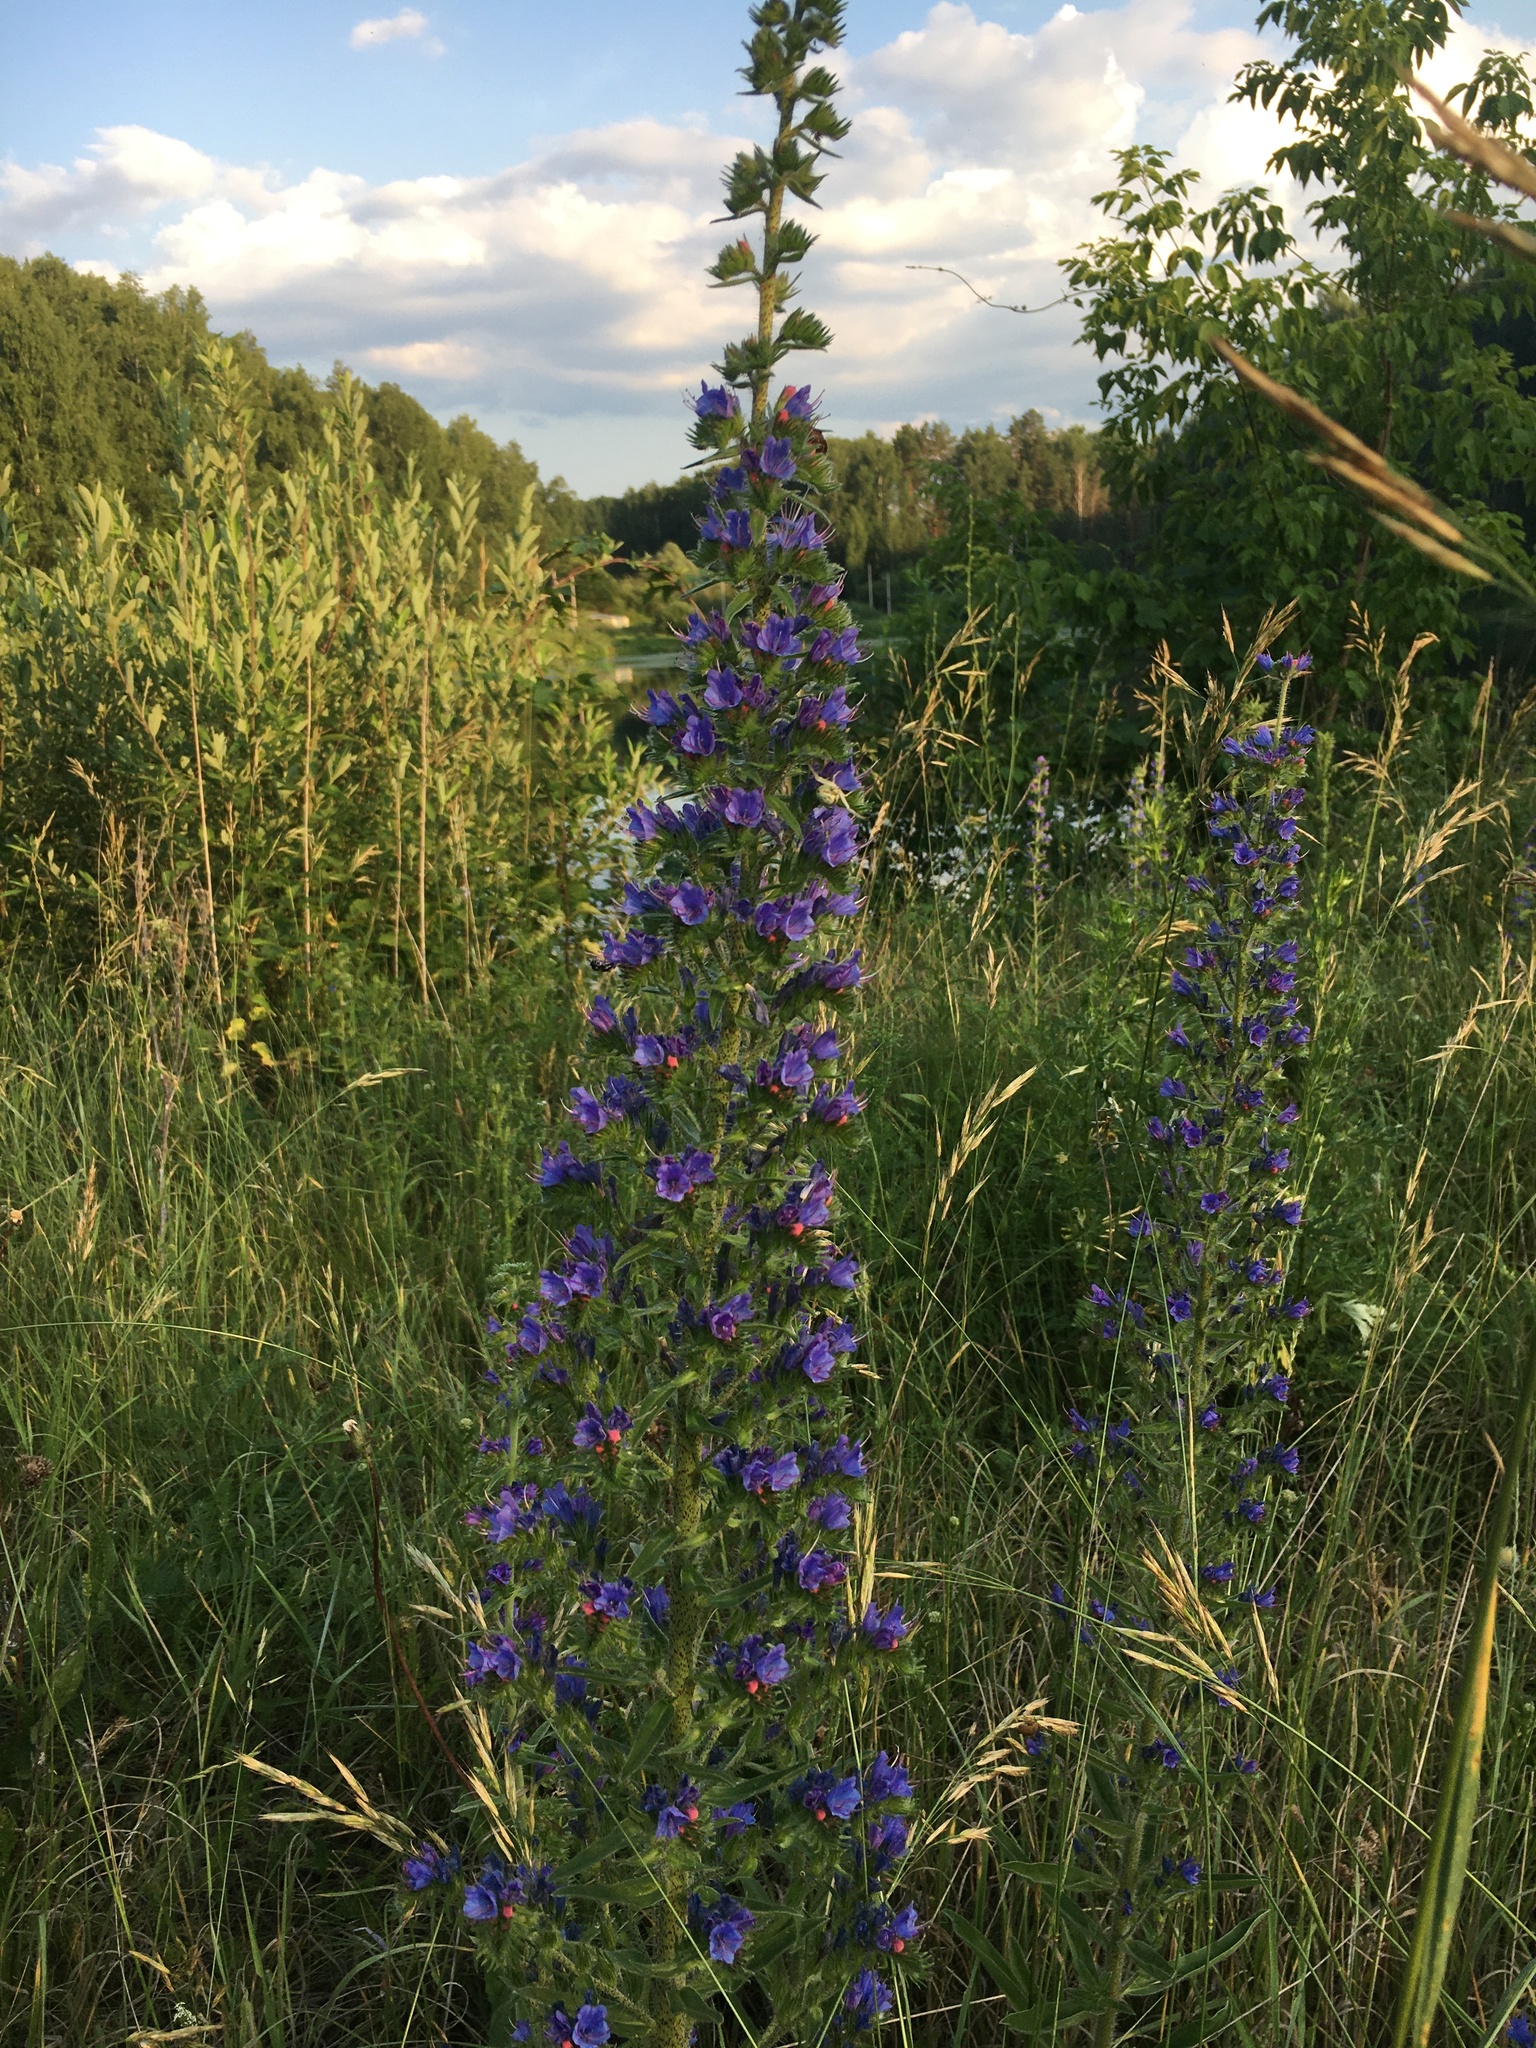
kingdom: Plantae
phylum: Tracheophyta
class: Magnoliopsida
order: Boraginales
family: Boraginaceae
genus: Echium
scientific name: Echium vulgare
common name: Common viper's bugloss
